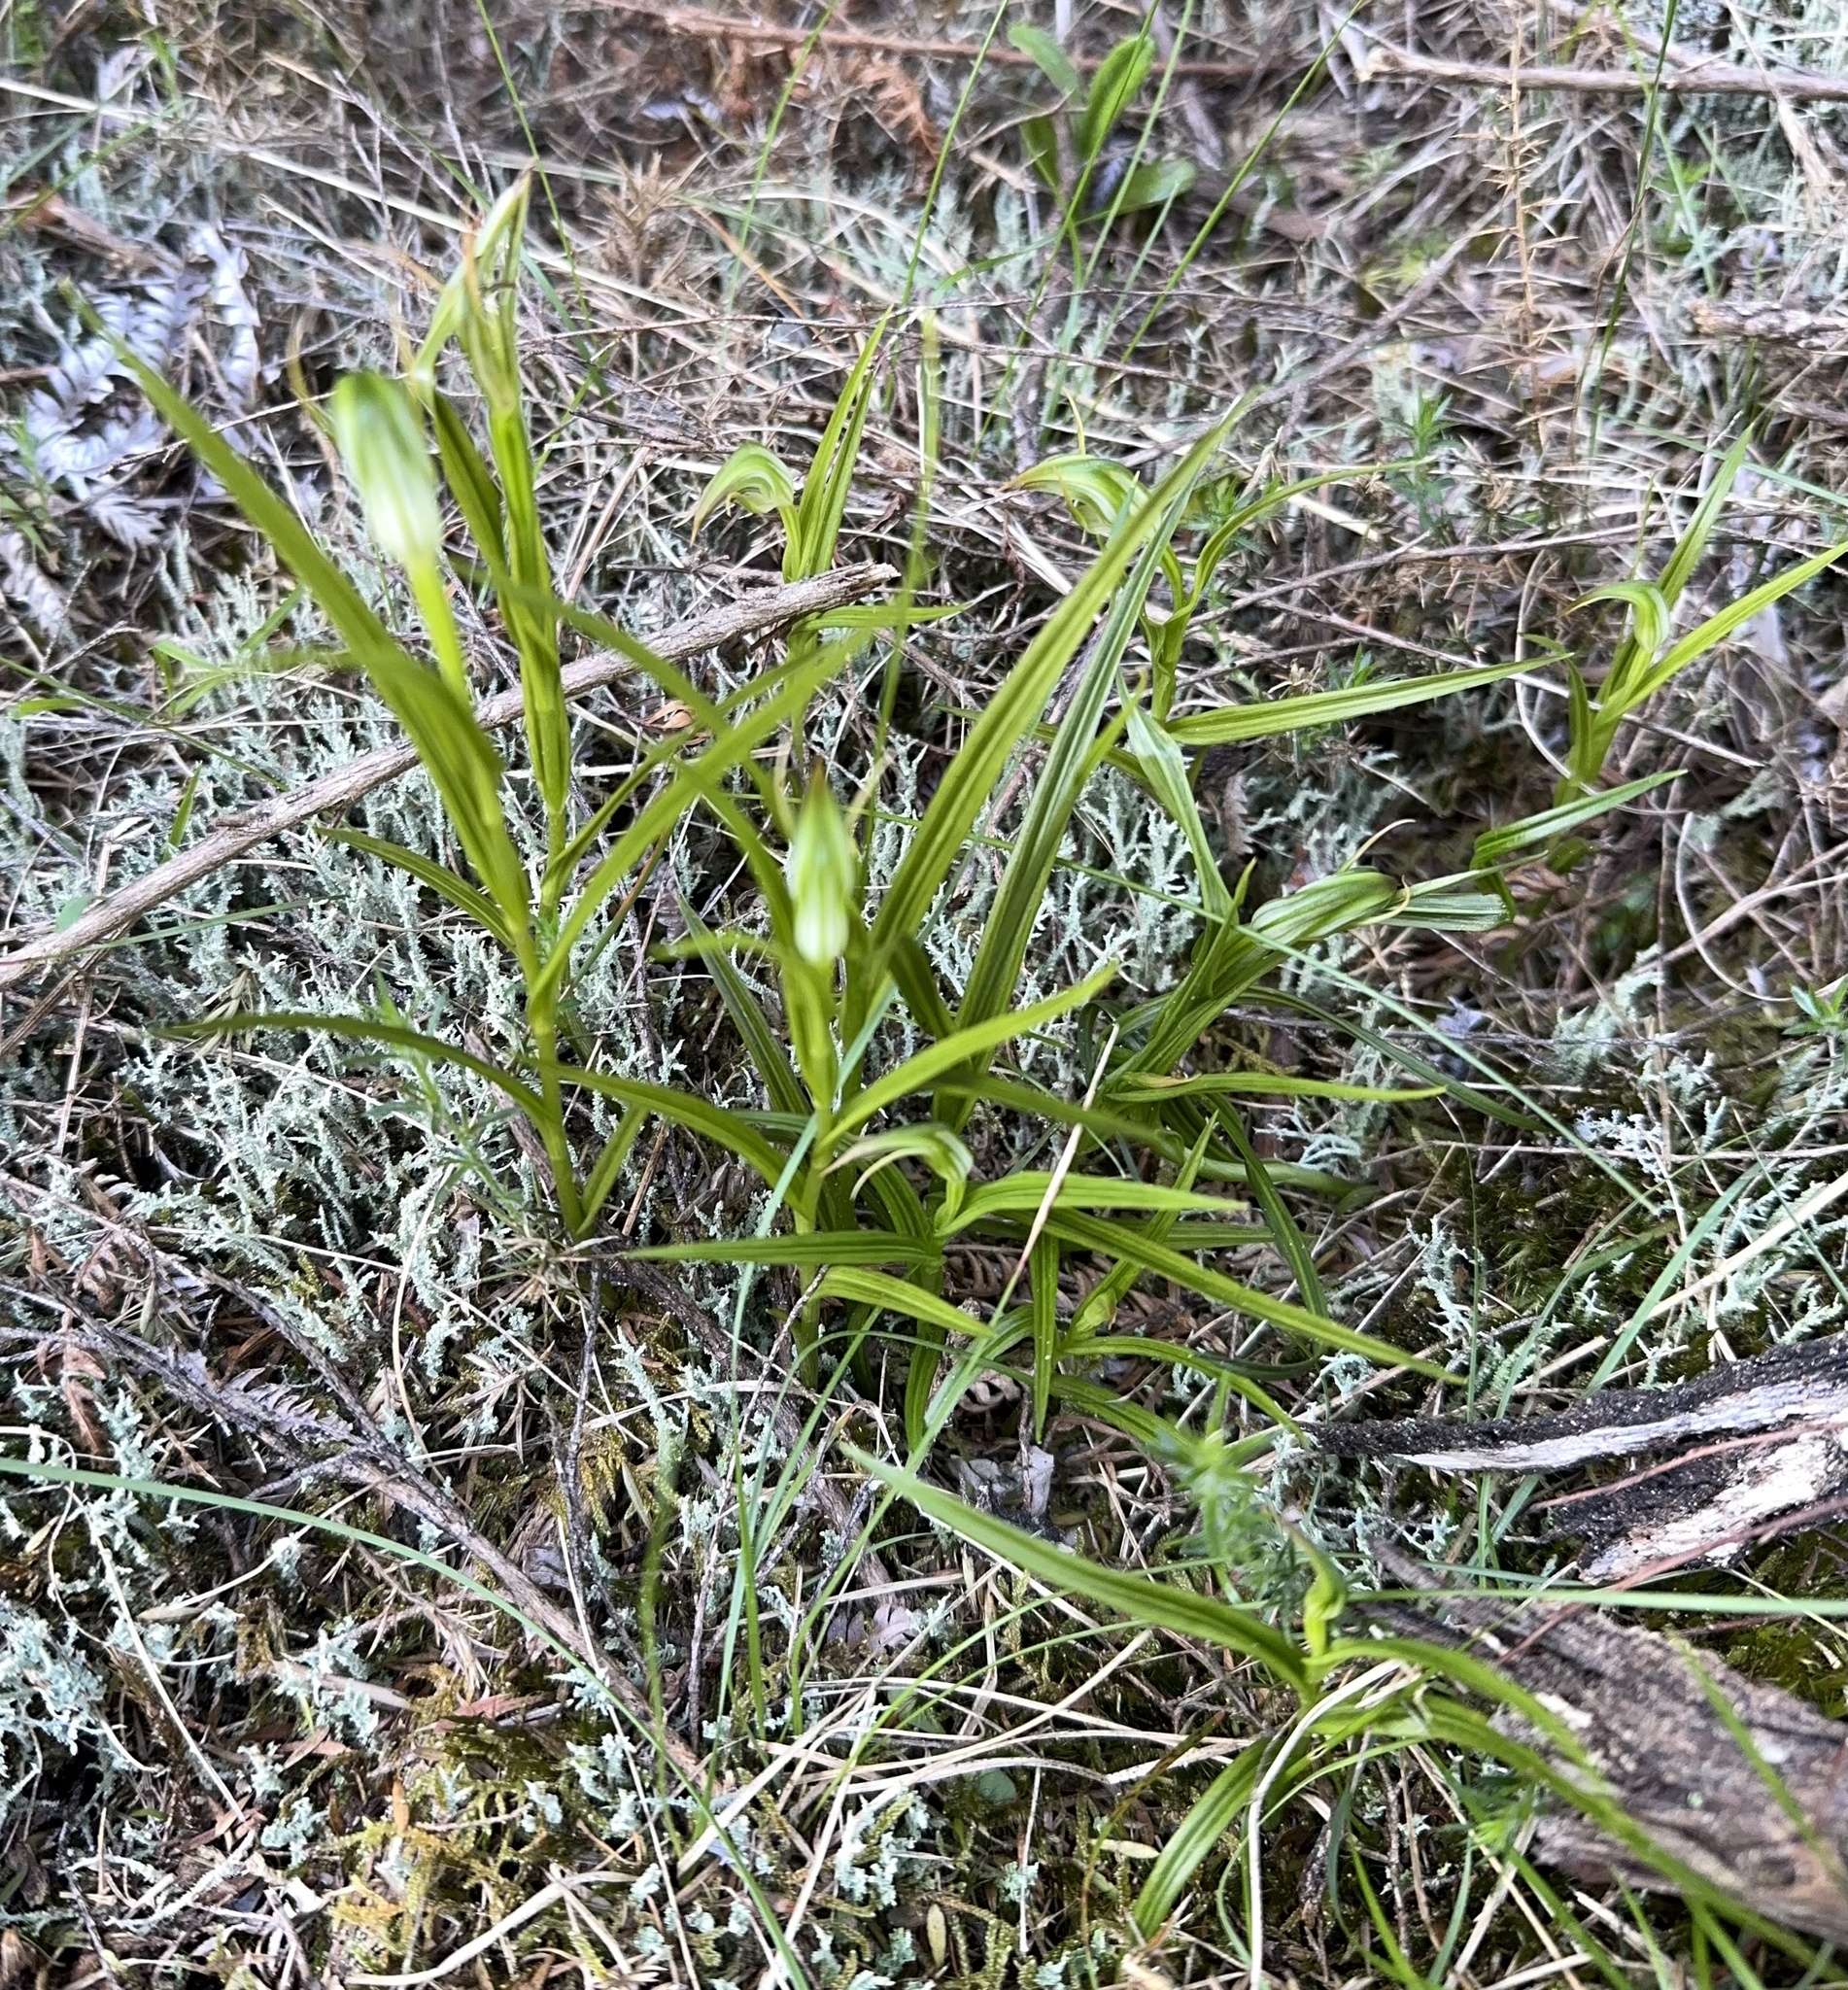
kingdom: Plantae
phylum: Tracheophyta
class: Liliopsida
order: Asparagales
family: Orchidaceae
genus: Pterostylis
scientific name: Pterostylis graminea
